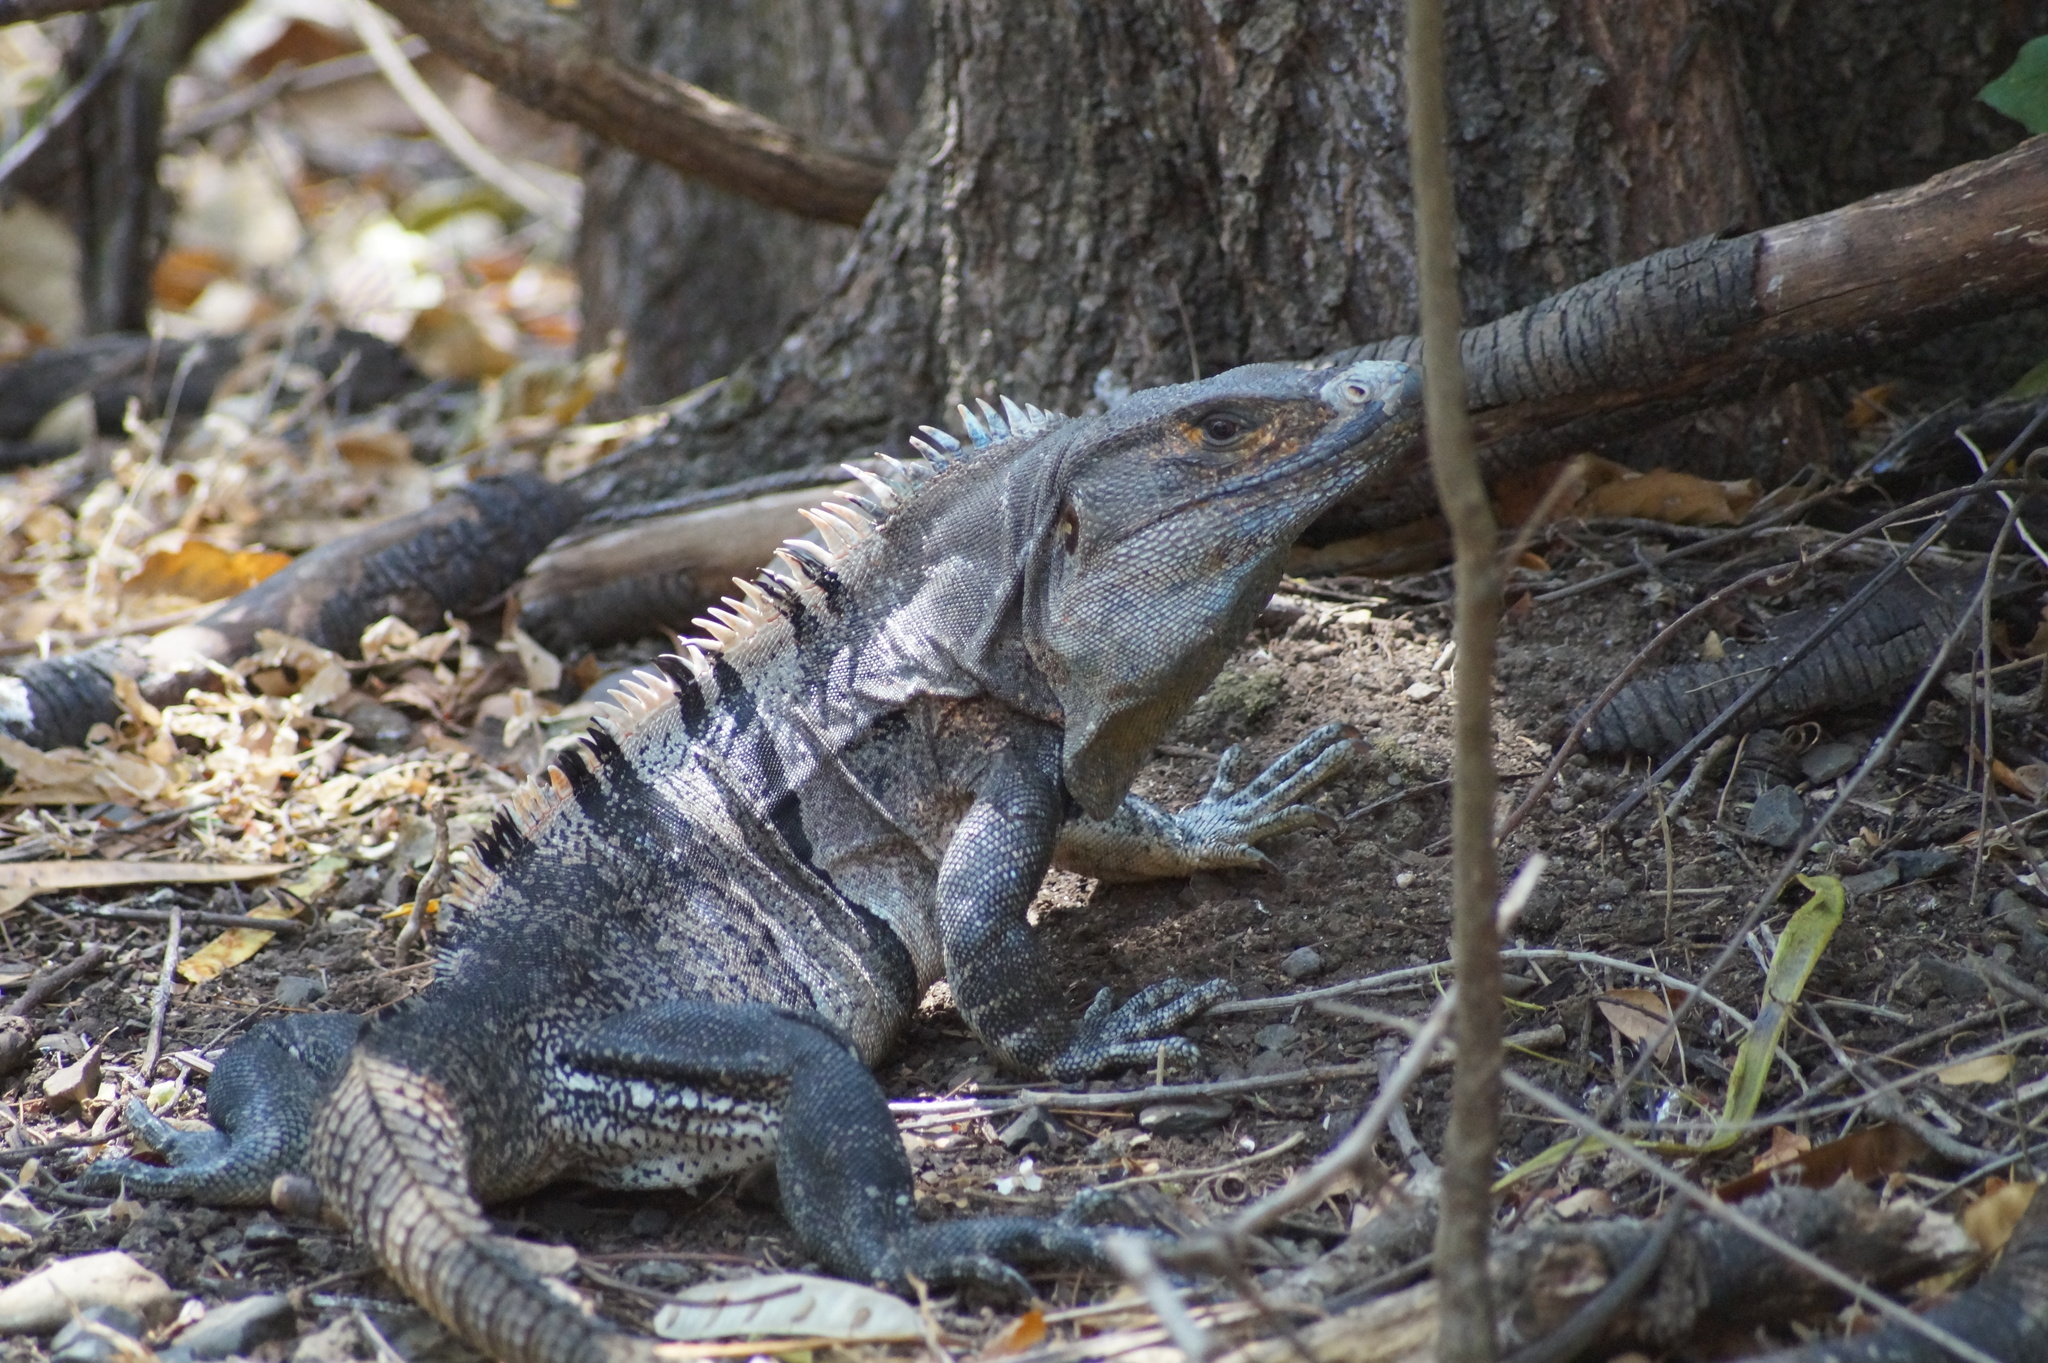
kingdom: Animalia
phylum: Chordata
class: Squamata
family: Iguanidae
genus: Ctenosaura
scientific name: Ctenosaura similis
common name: Black spiny-tailed iguana
